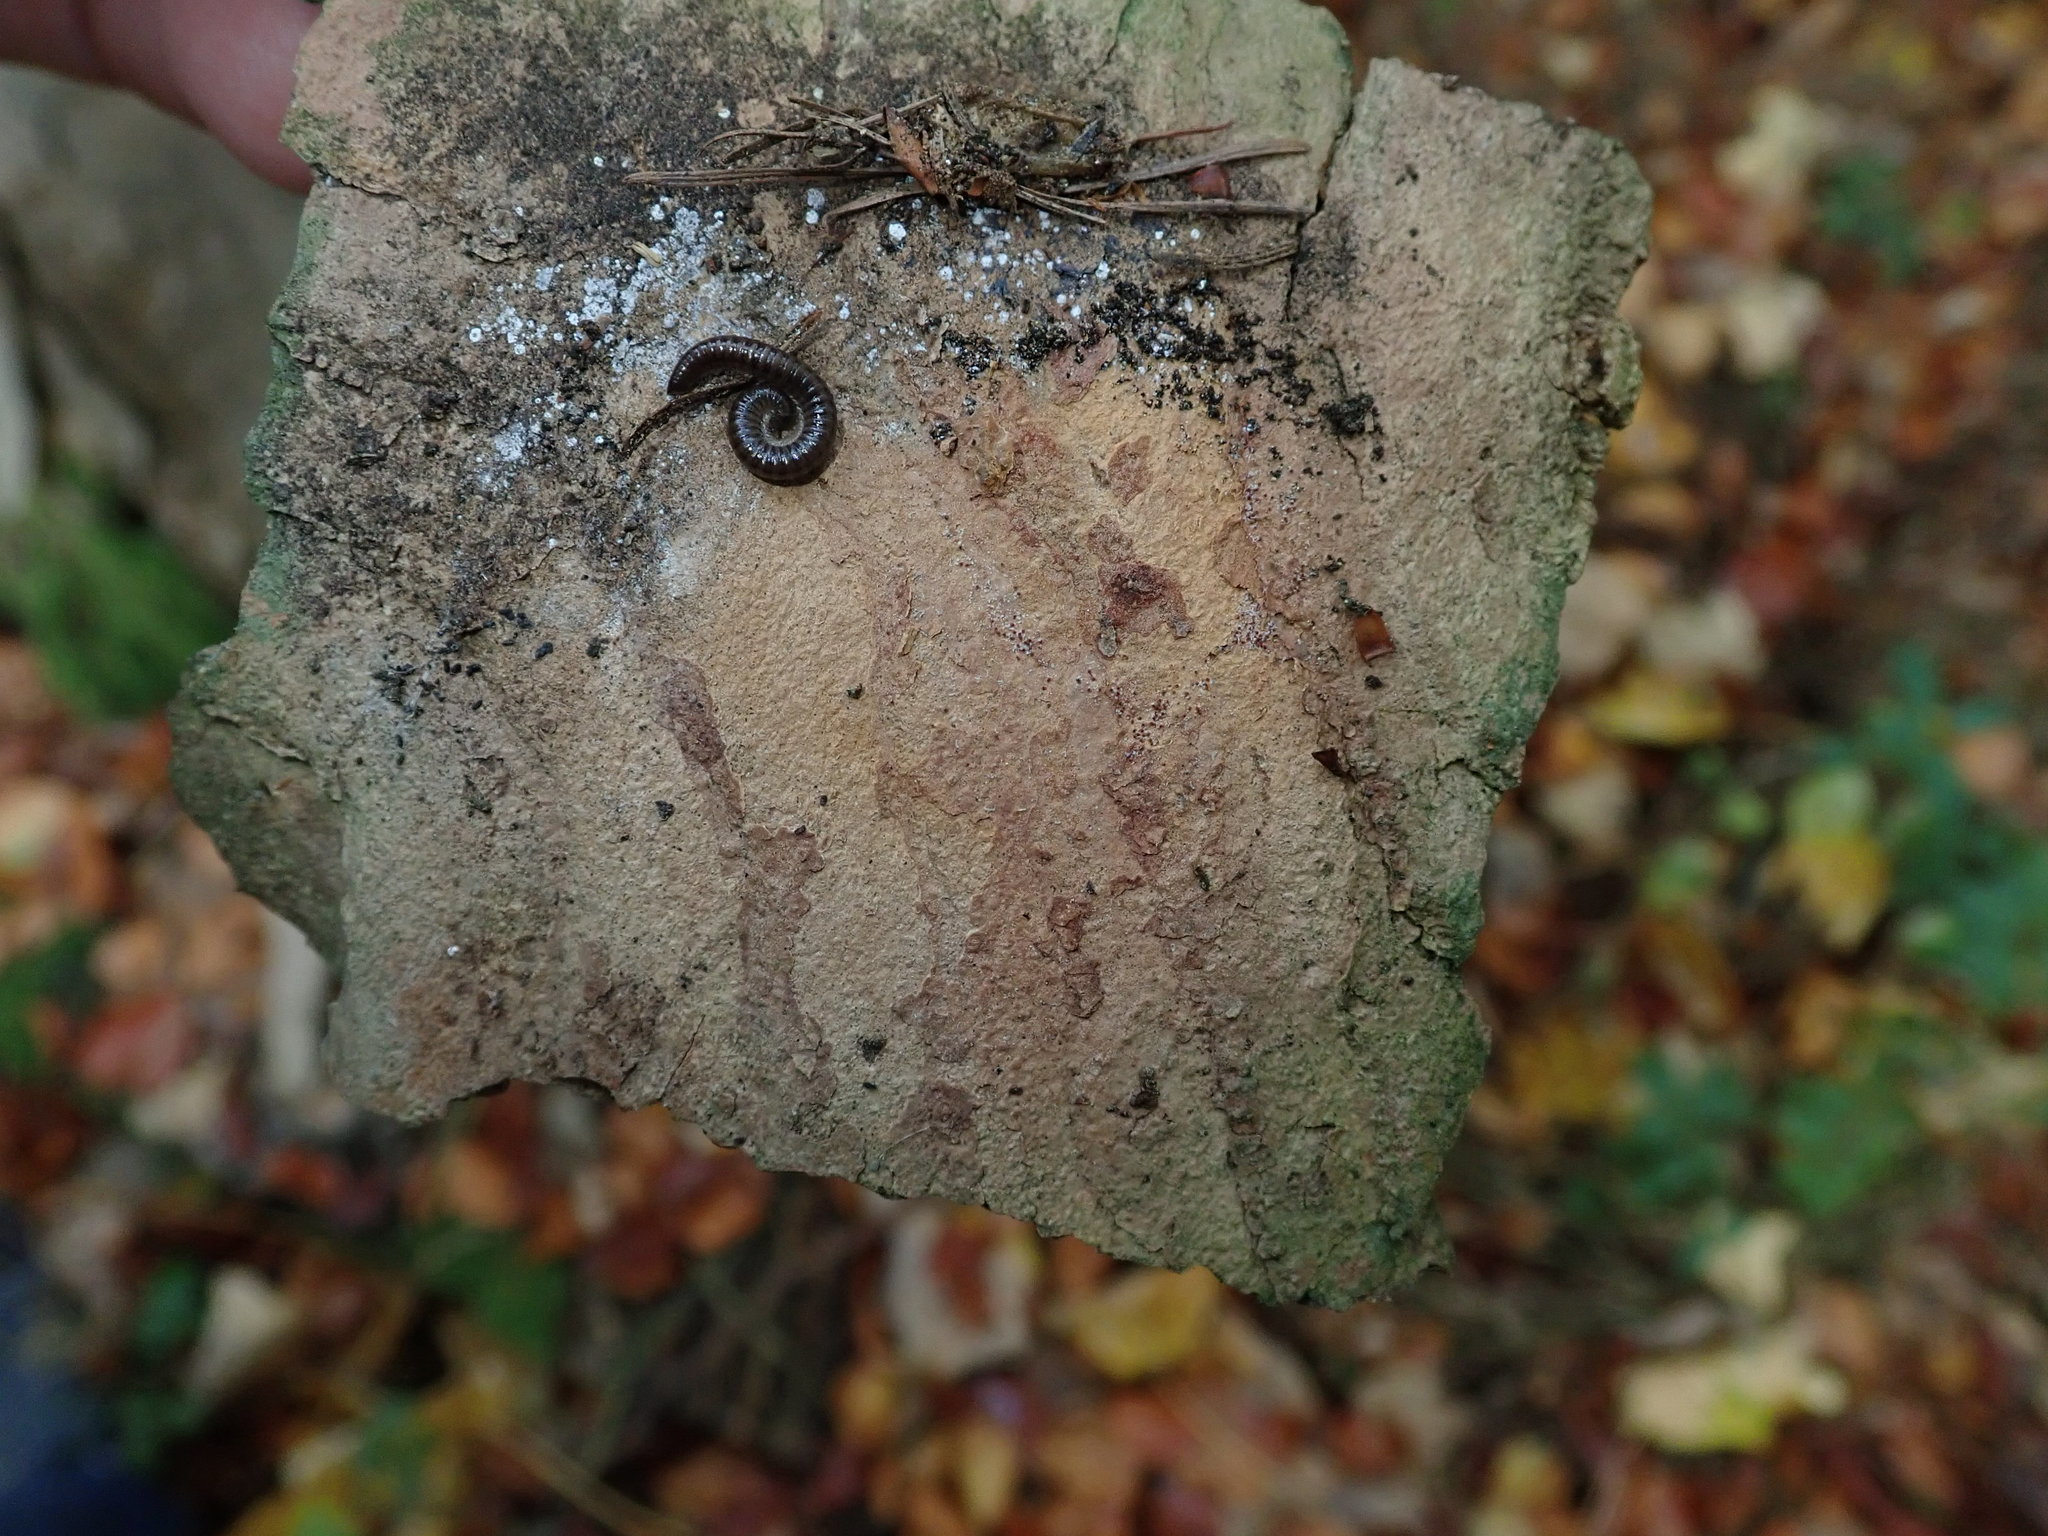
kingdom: Plantae
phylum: Tracheophyta
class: Magnoliopsida
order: Sapindales
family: Sapindaceae
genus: Acer
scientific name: Acer pseudoplatanus
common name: Sycamore
